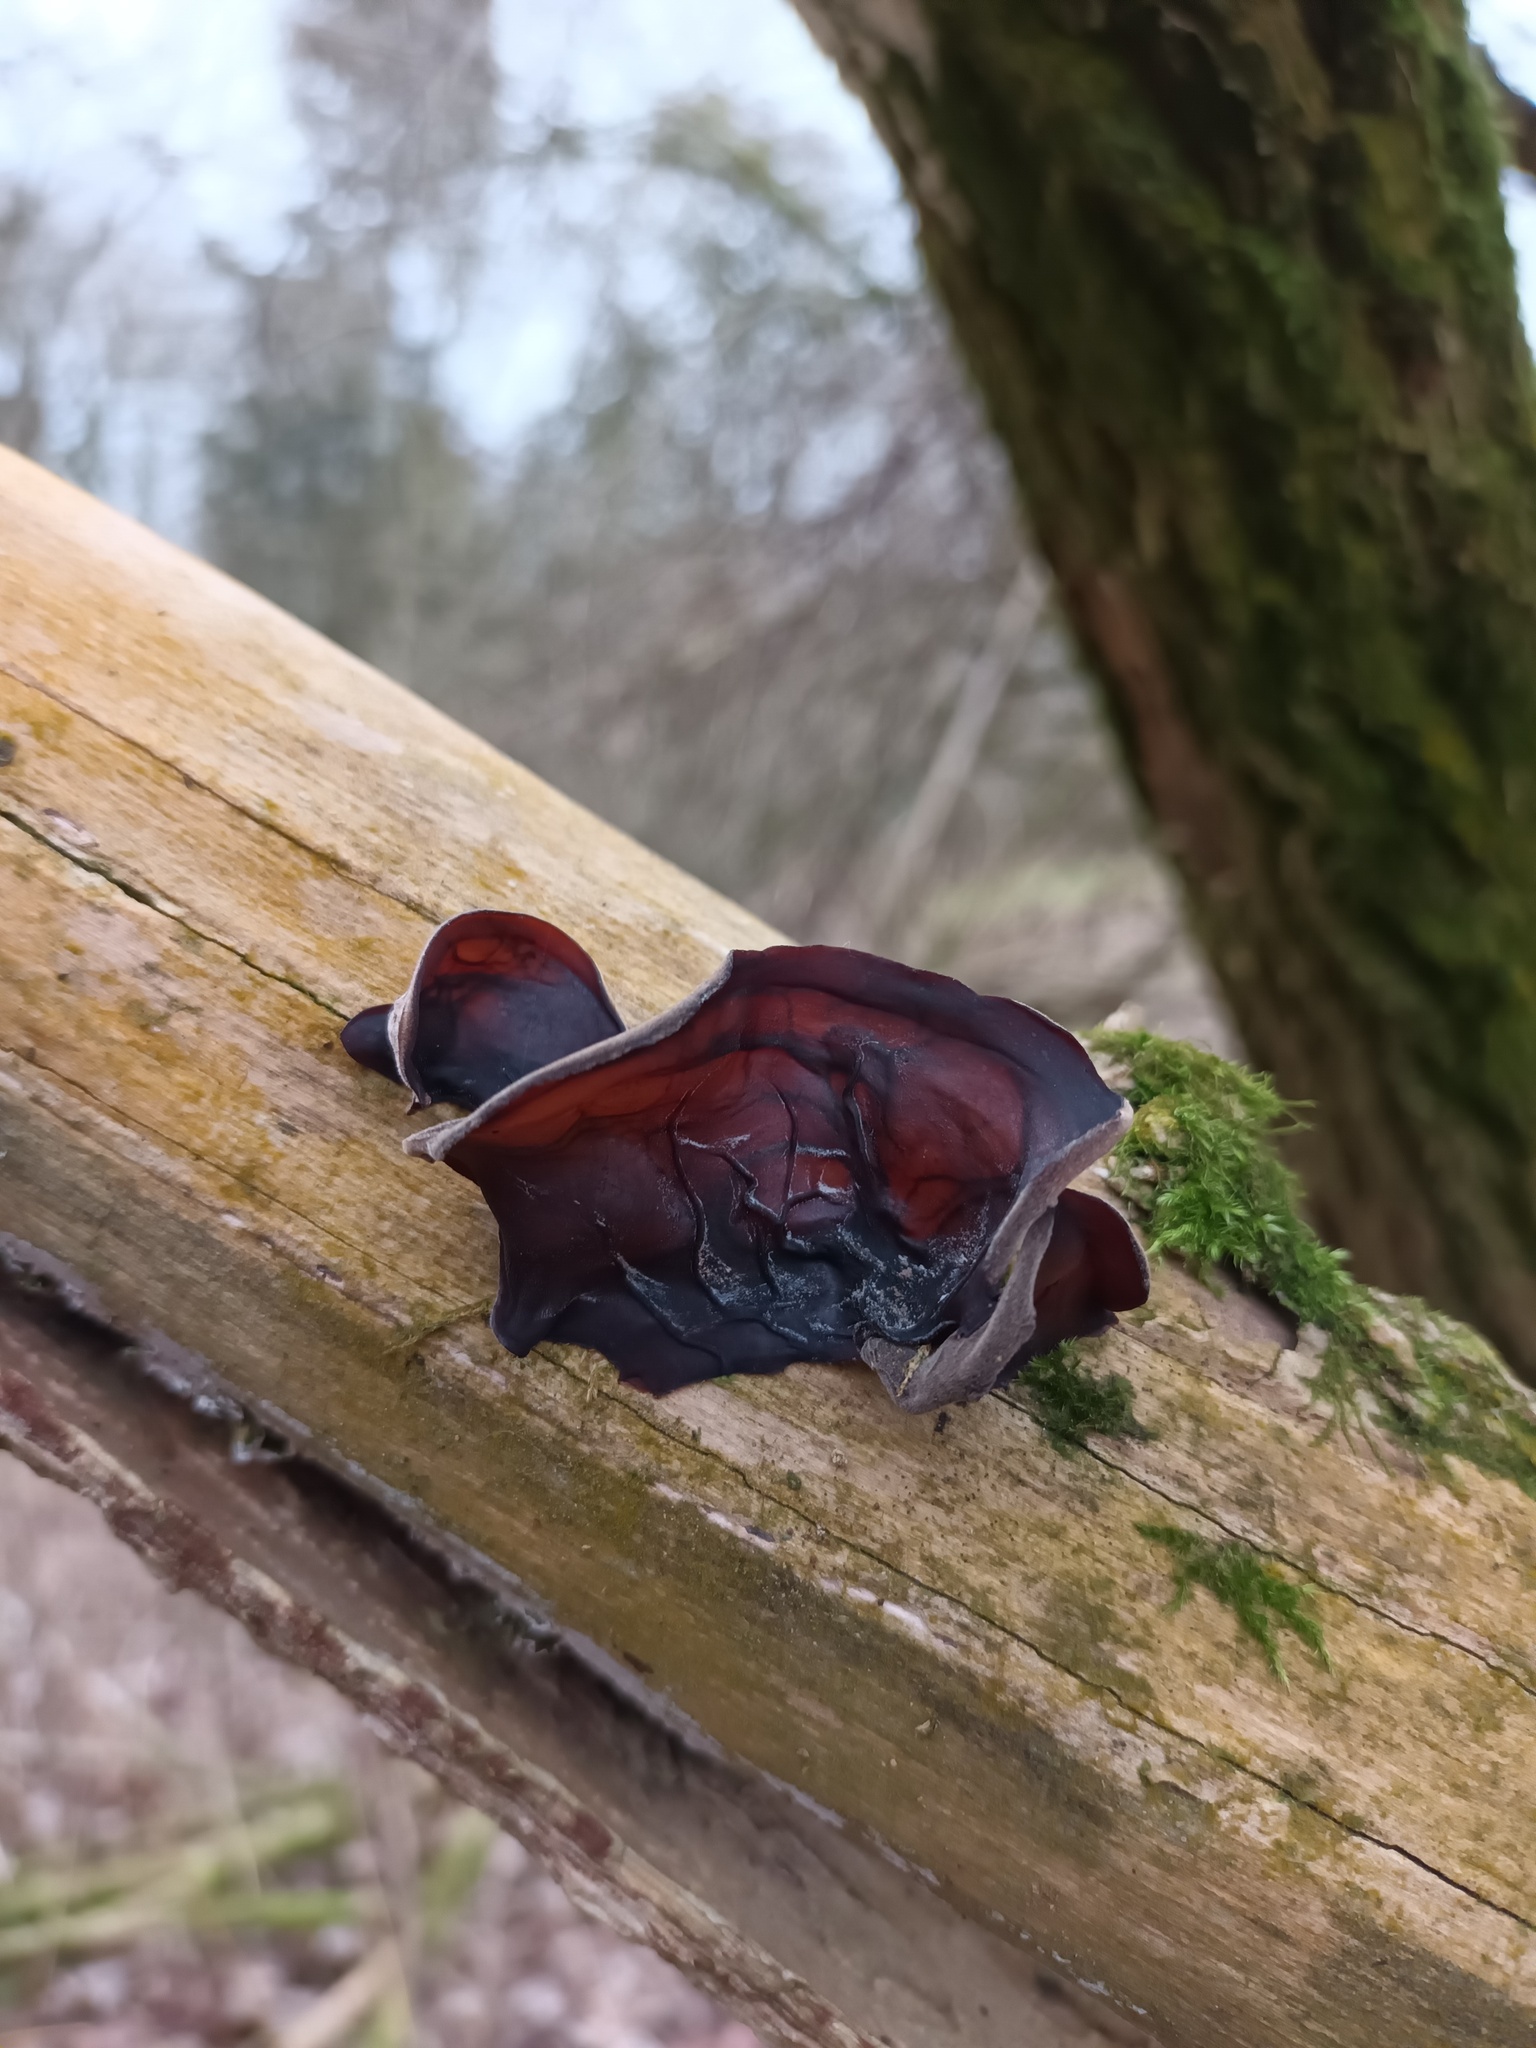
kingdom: Fungi
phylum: Basidiomycota
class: Agaricomycetes
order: Auriculariales
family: Auriculariaceae
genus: Auricularia
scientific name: Auricularia auricula-judae
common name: Jelly ear
